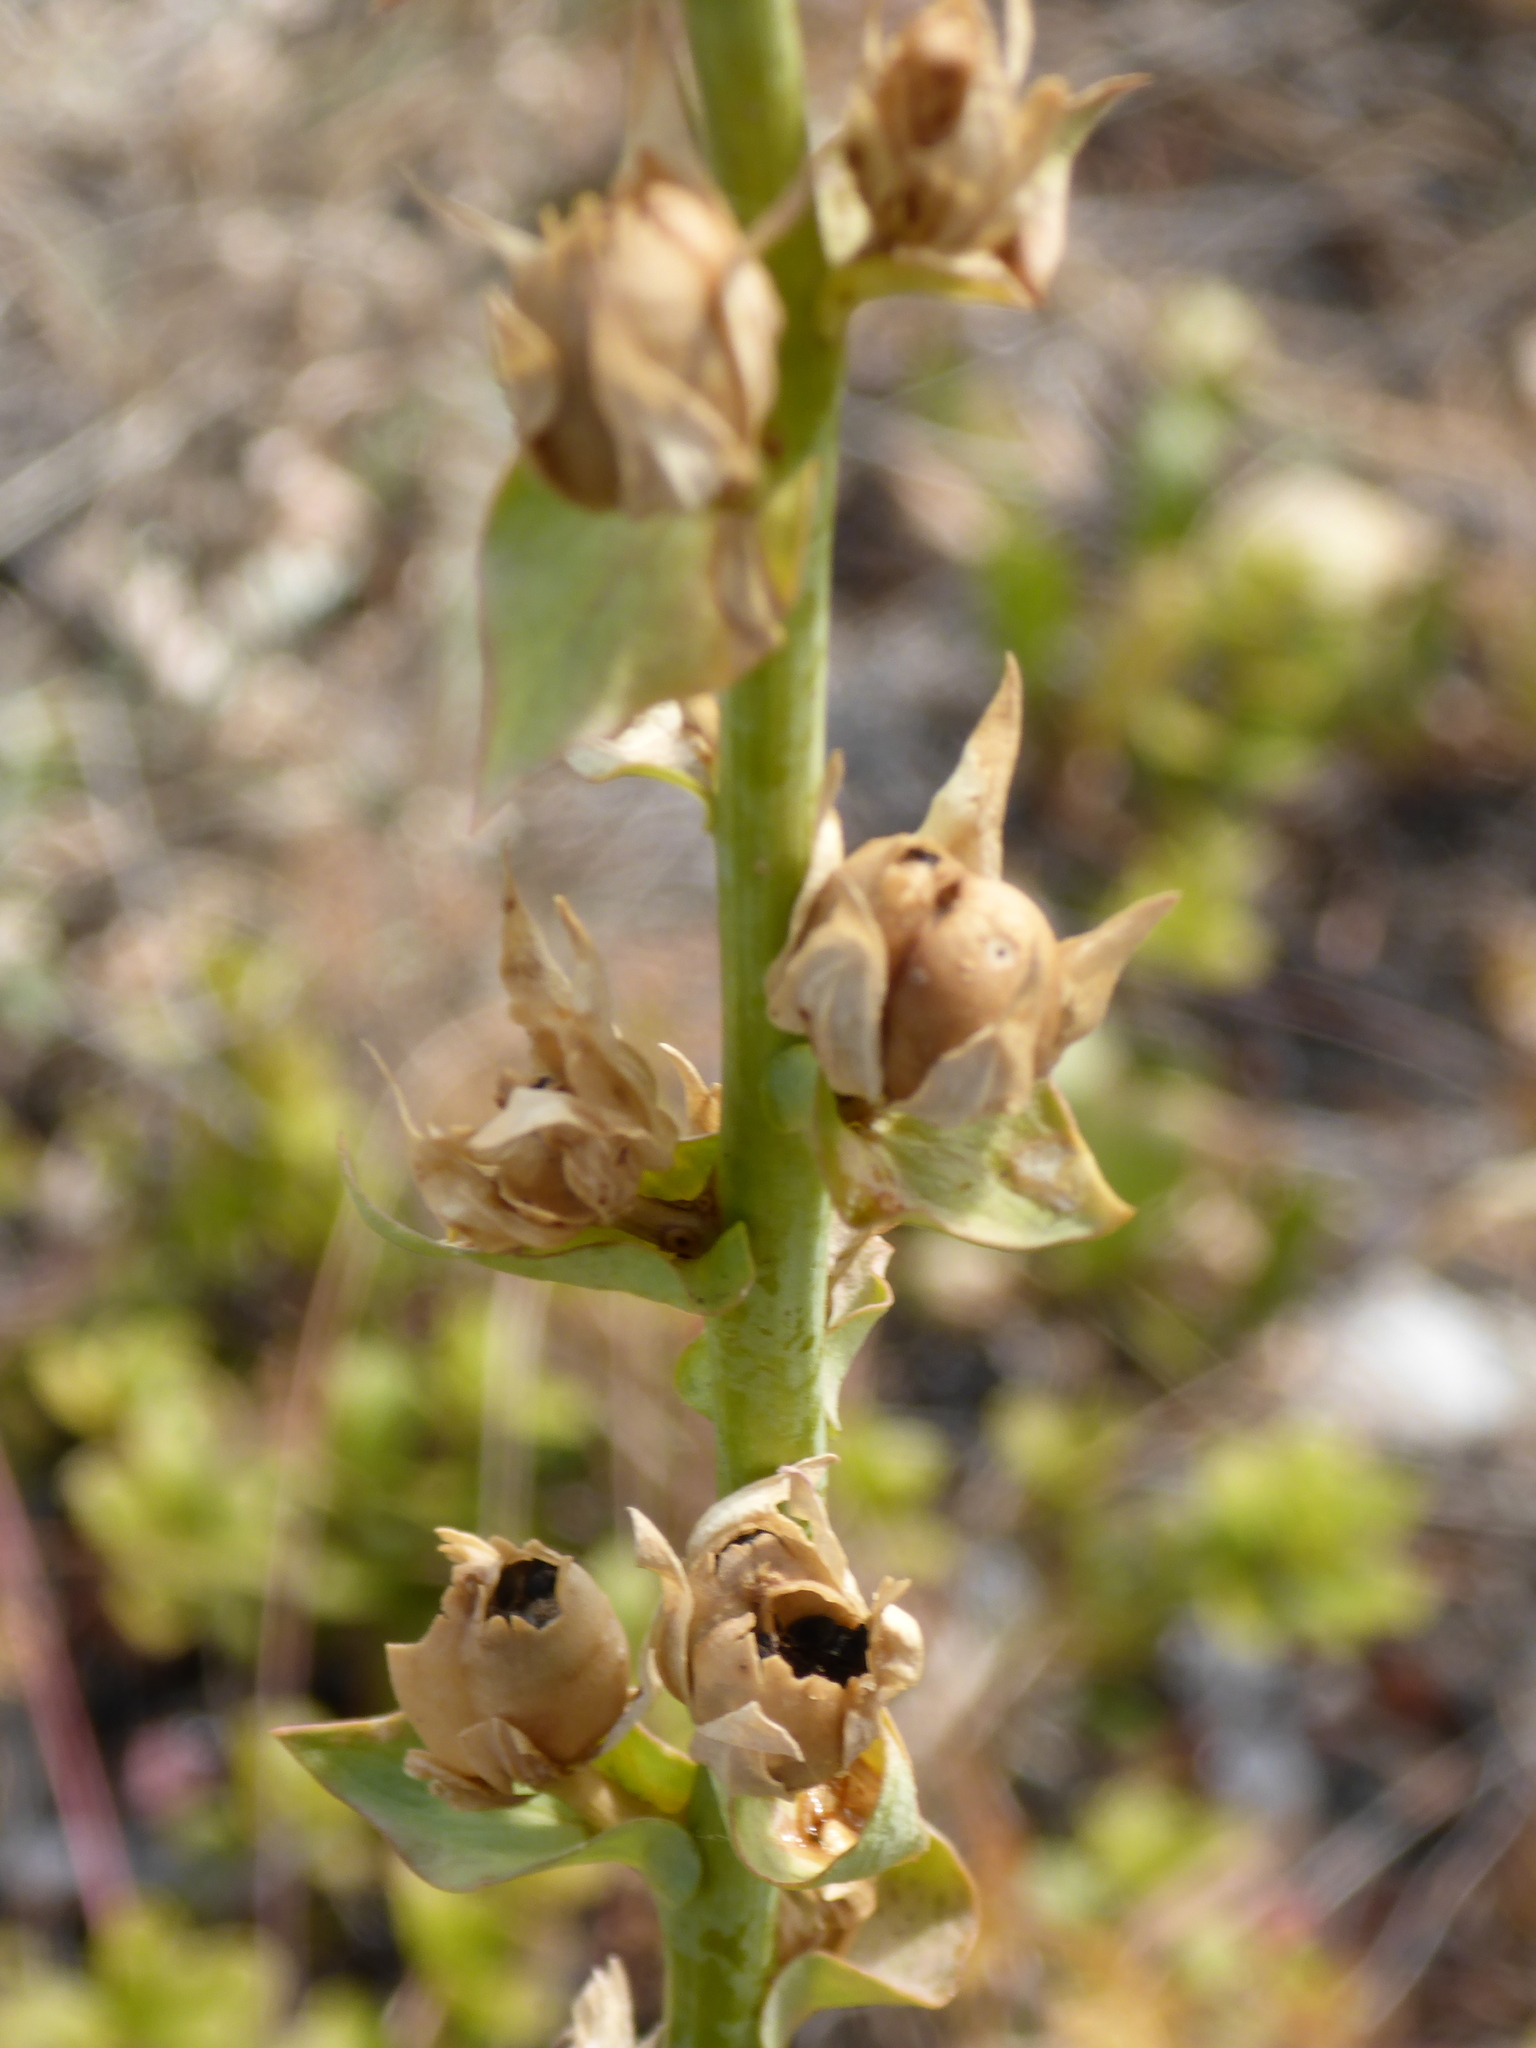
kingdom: Plantae
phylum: Tracheophyta
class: Magnoliopsida
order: Lamiales
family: Plantaginaceae
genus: Linaria
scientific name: Linaria dalmatica
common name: Dalmatian toadflax
